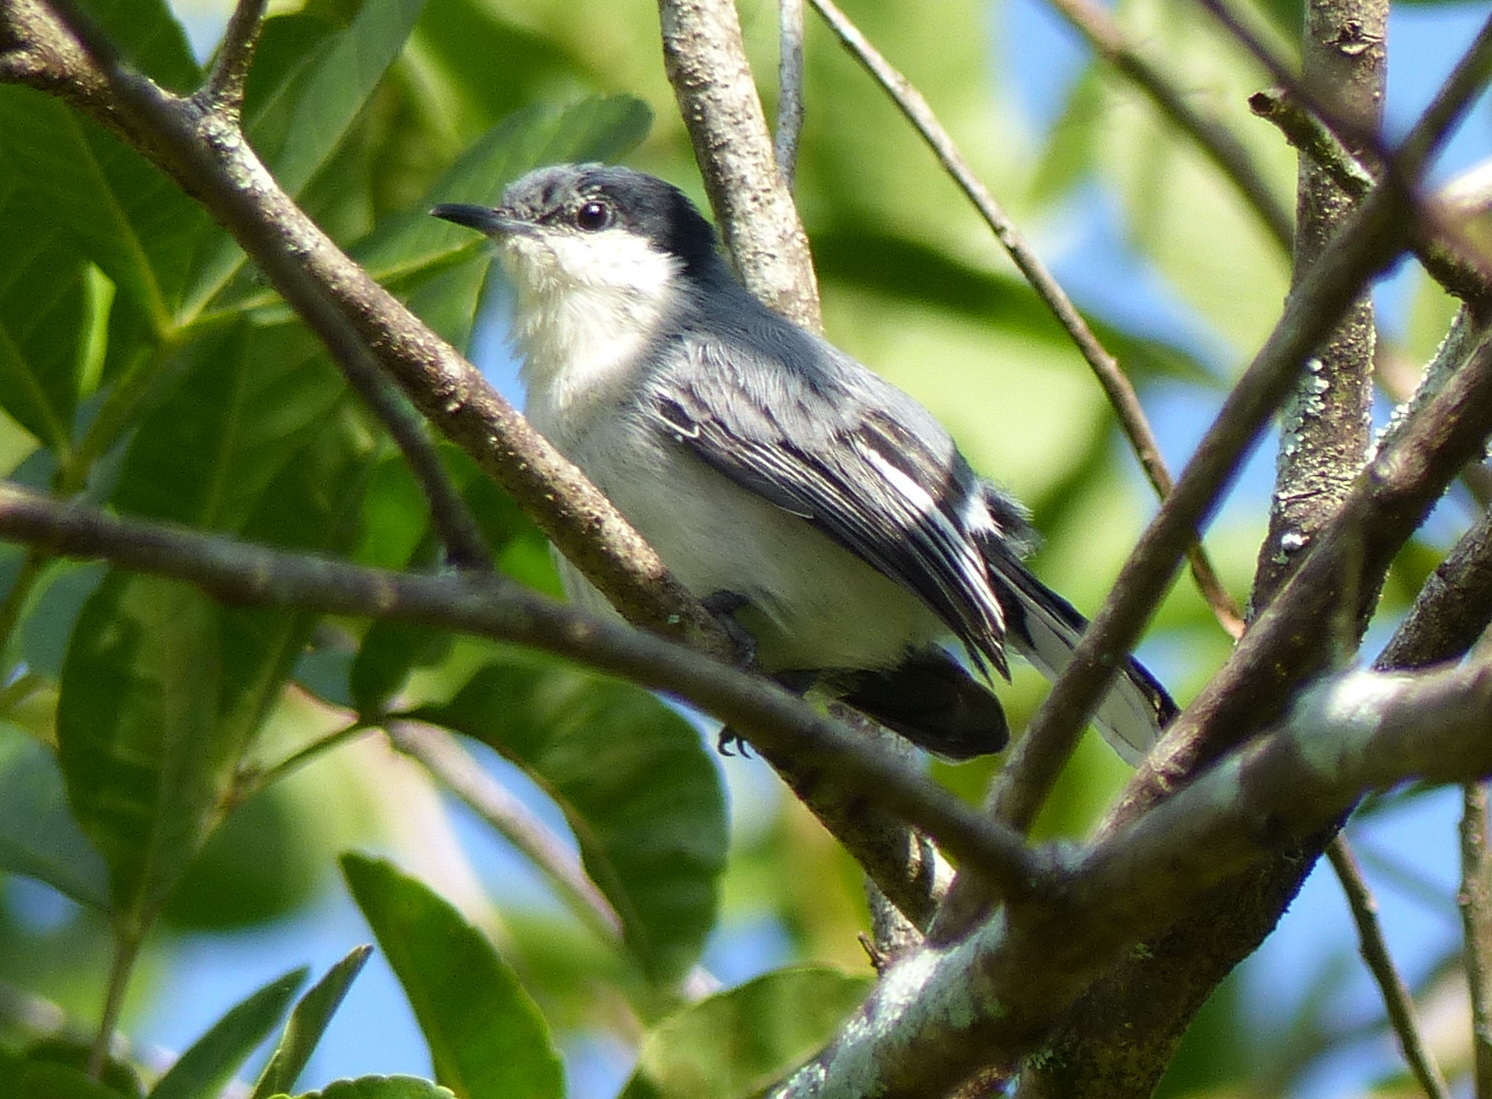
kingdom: Animalia
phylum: Chordata
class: Aves
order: Passeriformes
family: Polioptilidae
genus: Polioptila
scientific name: Polioptila plumbea
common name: Tropical gnatcatcher
